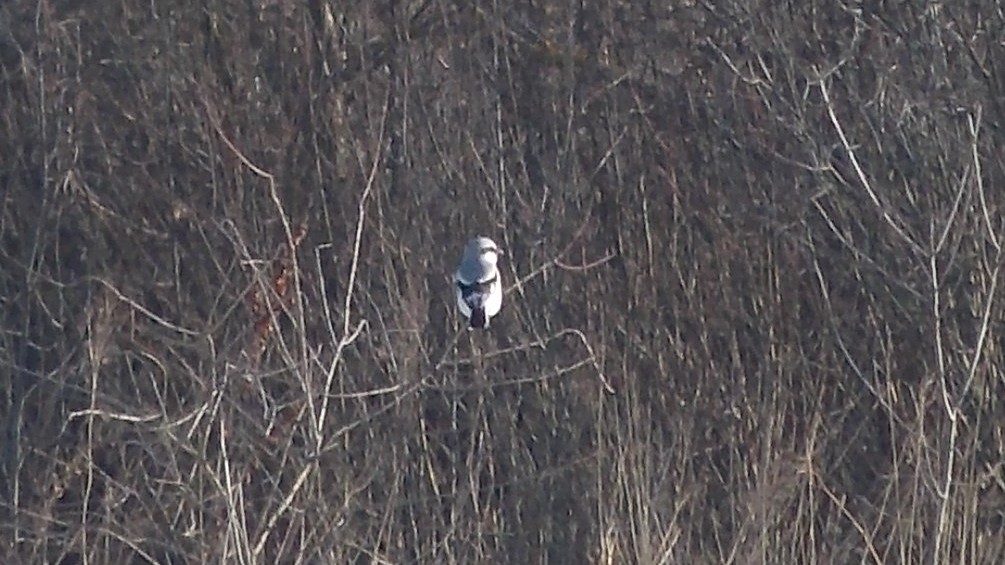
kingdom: Animalia
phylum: Chordata
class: Aves
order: Passeriformes
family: Laniidae
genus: Lanius
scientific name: Lanius excubitor
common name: Great grey shrike
